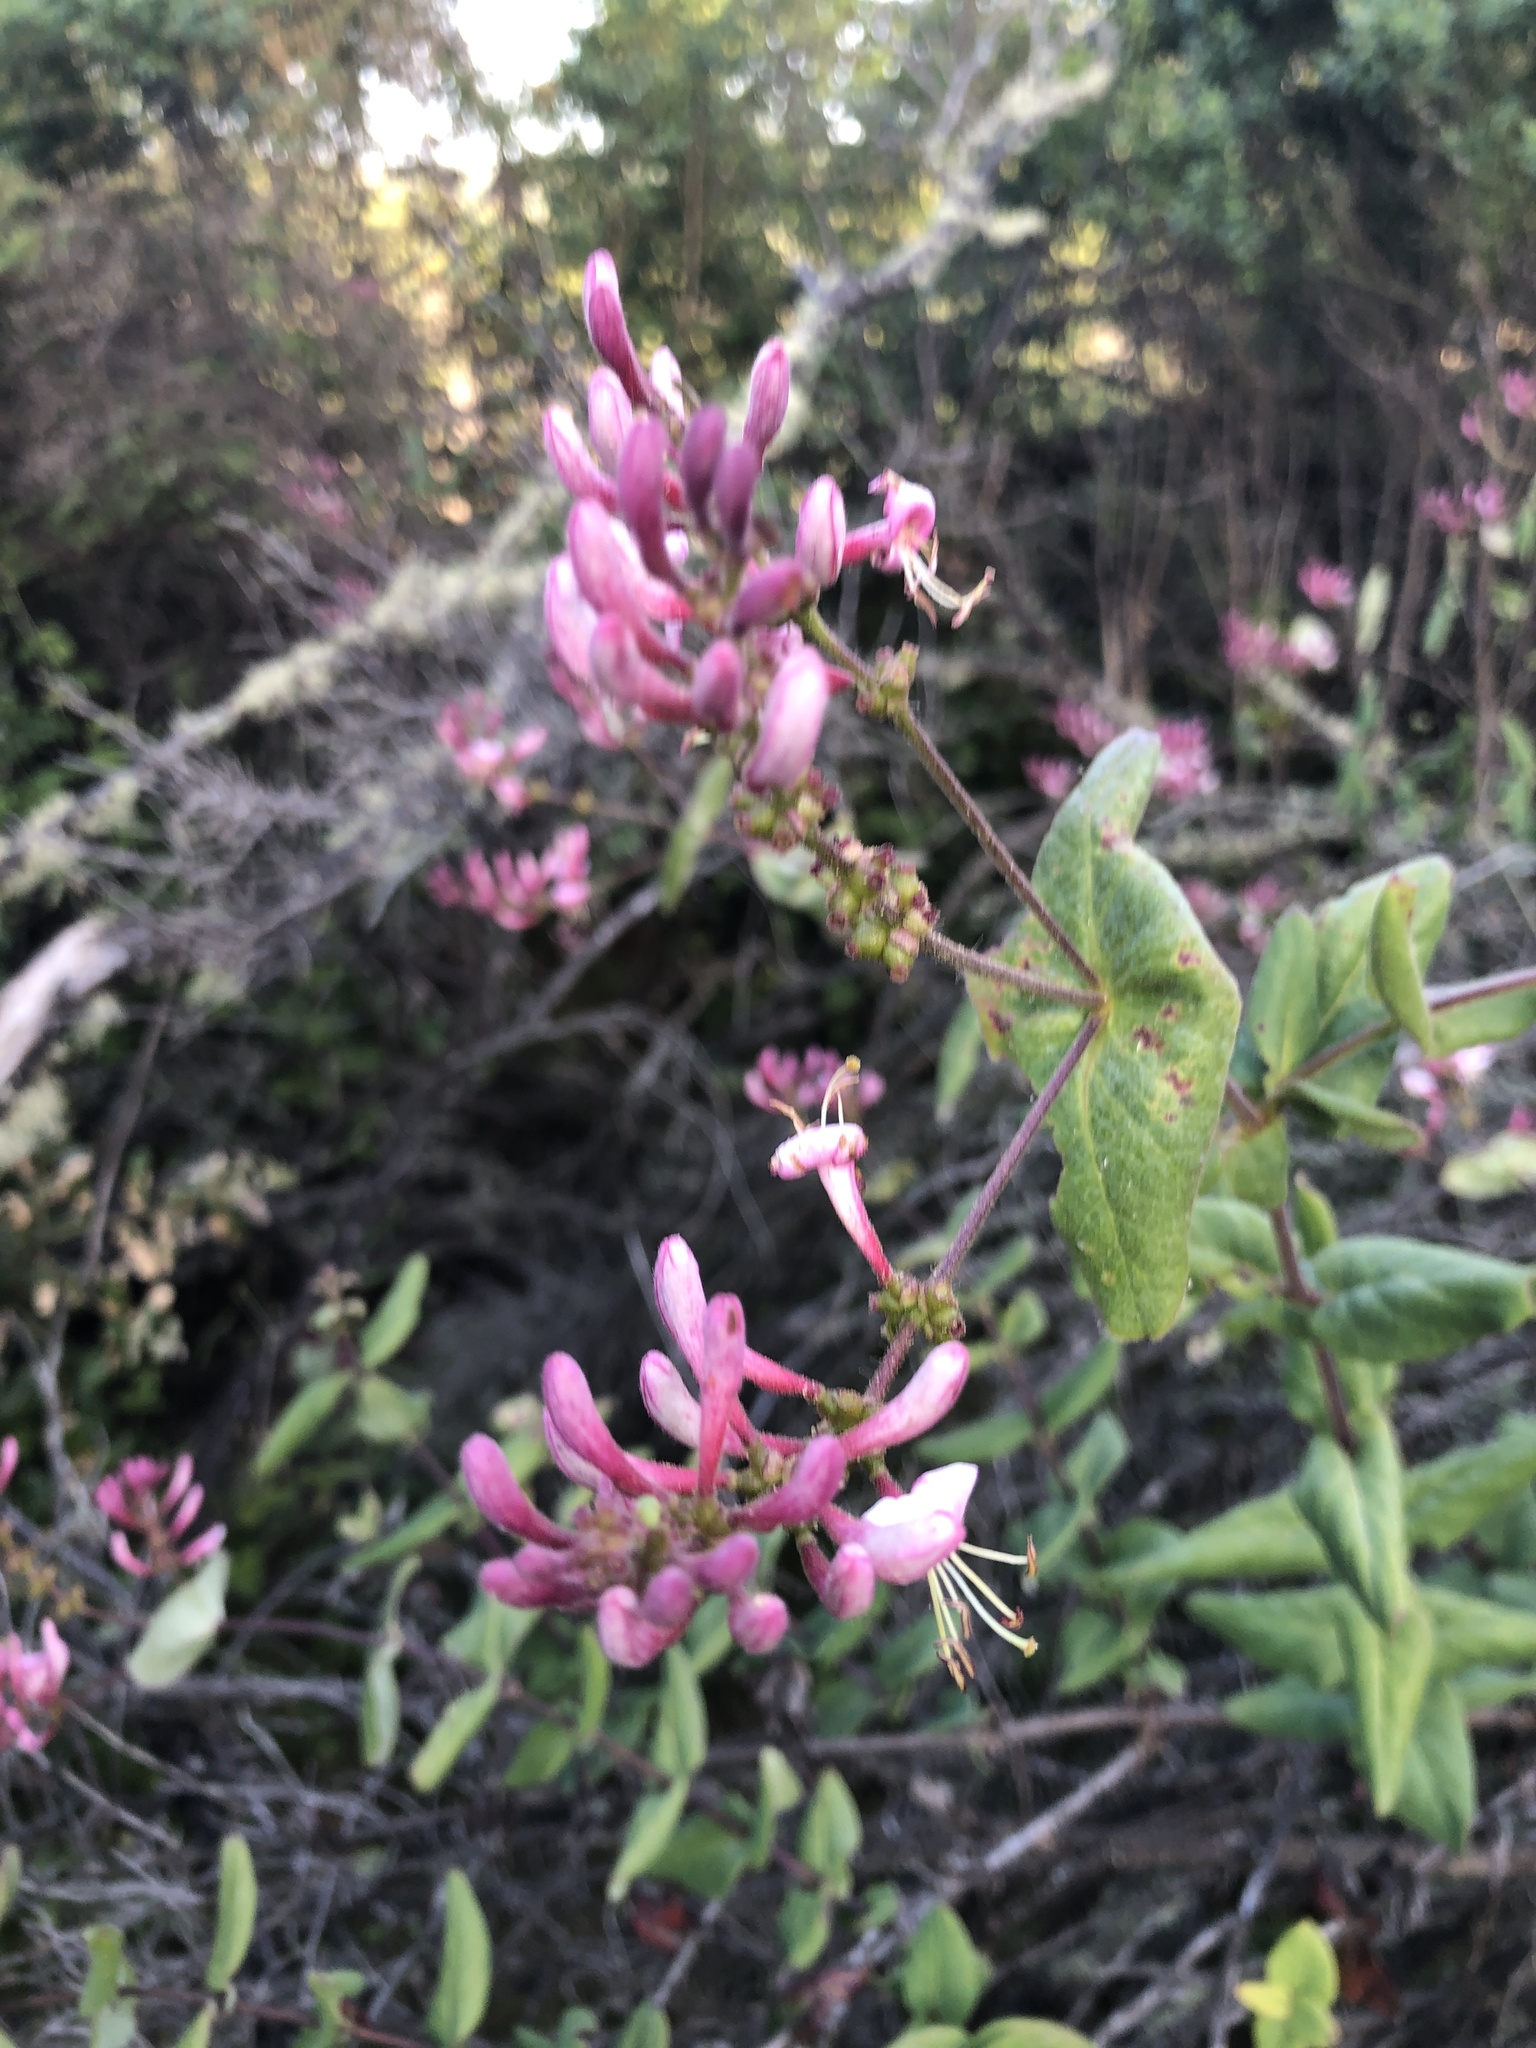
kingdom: Plantae
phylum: Tracheophyta
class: Magnoliopsida
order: Dipsacales
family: Caprifoliaceae
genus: Lonicera
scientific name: Lonicera hispidula
